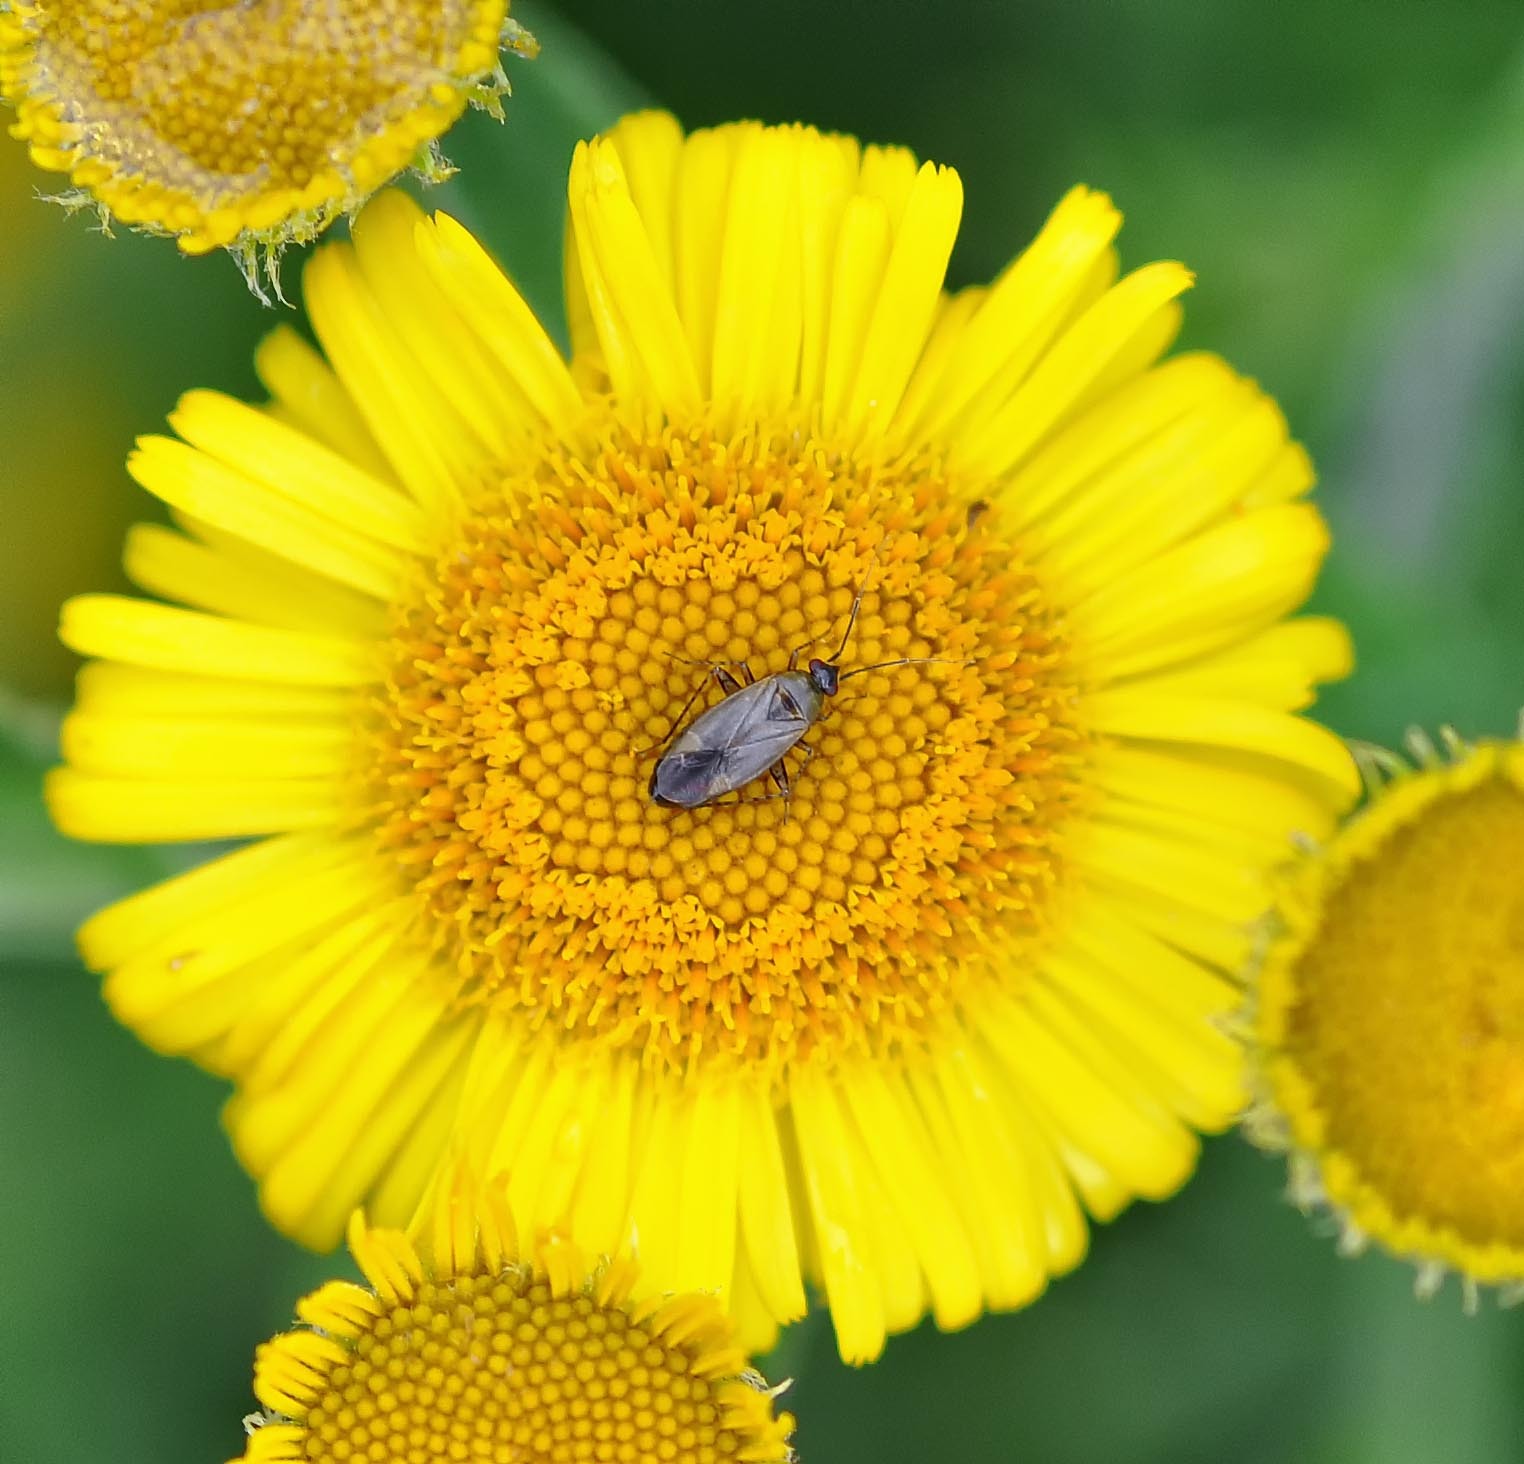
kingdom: Animalia
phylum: Arthropoda
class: Insecta
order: Hemiptera
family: Miridae
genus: Plagiognathus
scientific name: Plagiognathus arbustorum
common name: Plant bug
